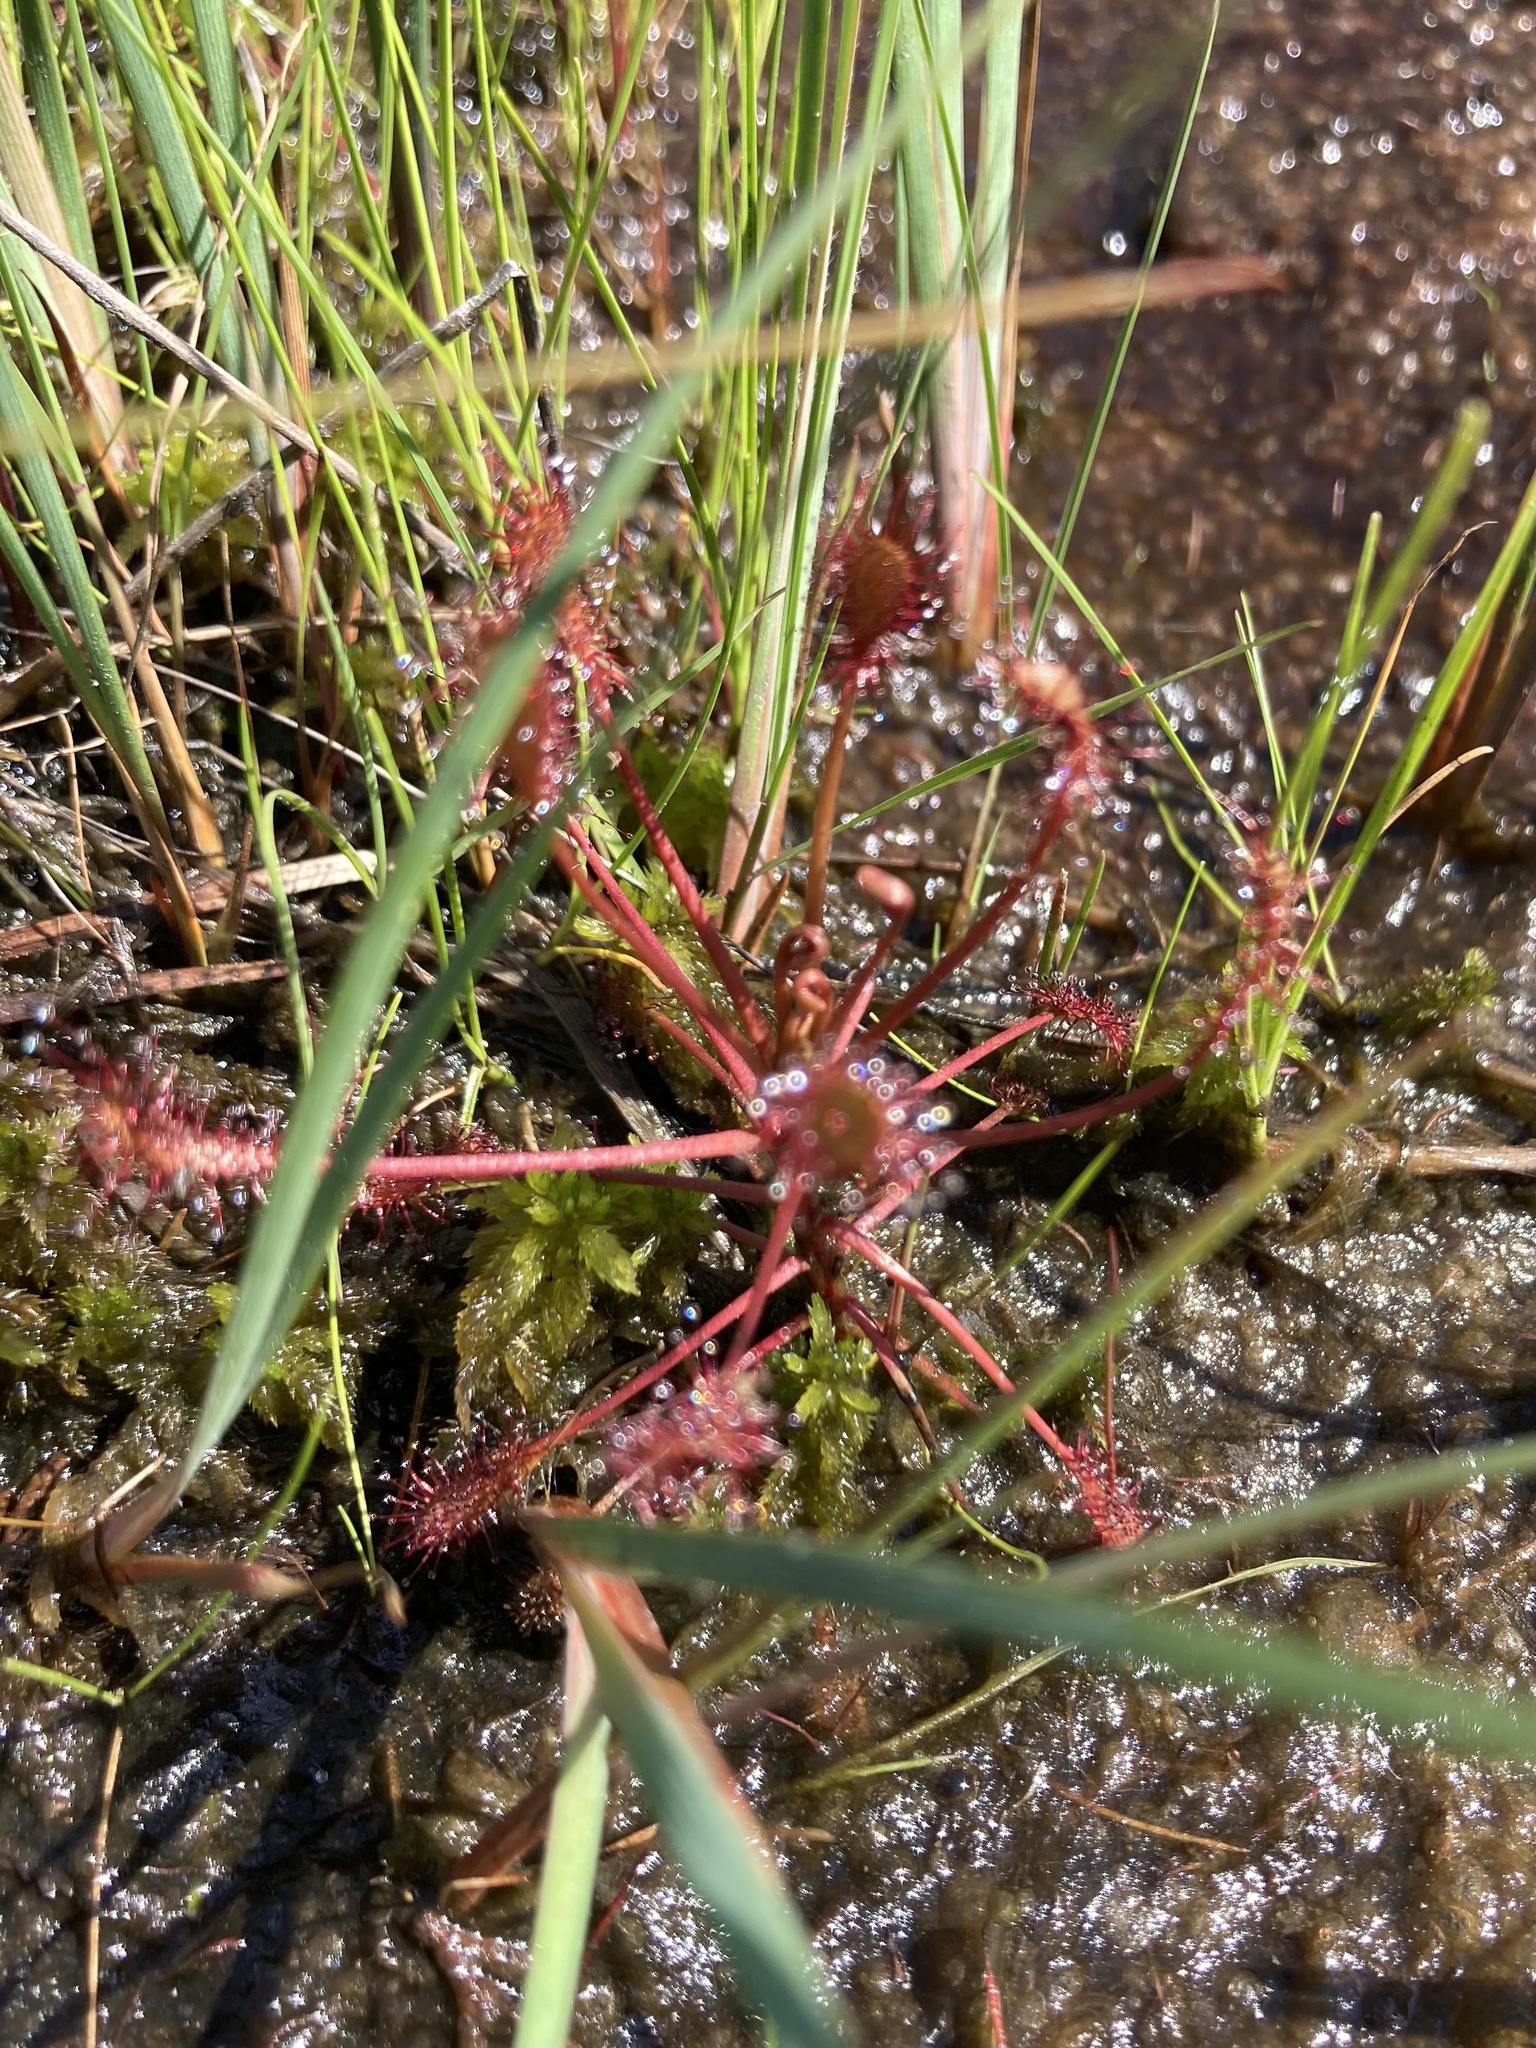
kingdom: Plantae
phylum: Tracheophyta
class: Magnoliopsida
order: Caryophyllales
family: Droseraceae
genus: Drosera
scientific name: Drosera intermedia
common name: Oblong-leaved sundew
